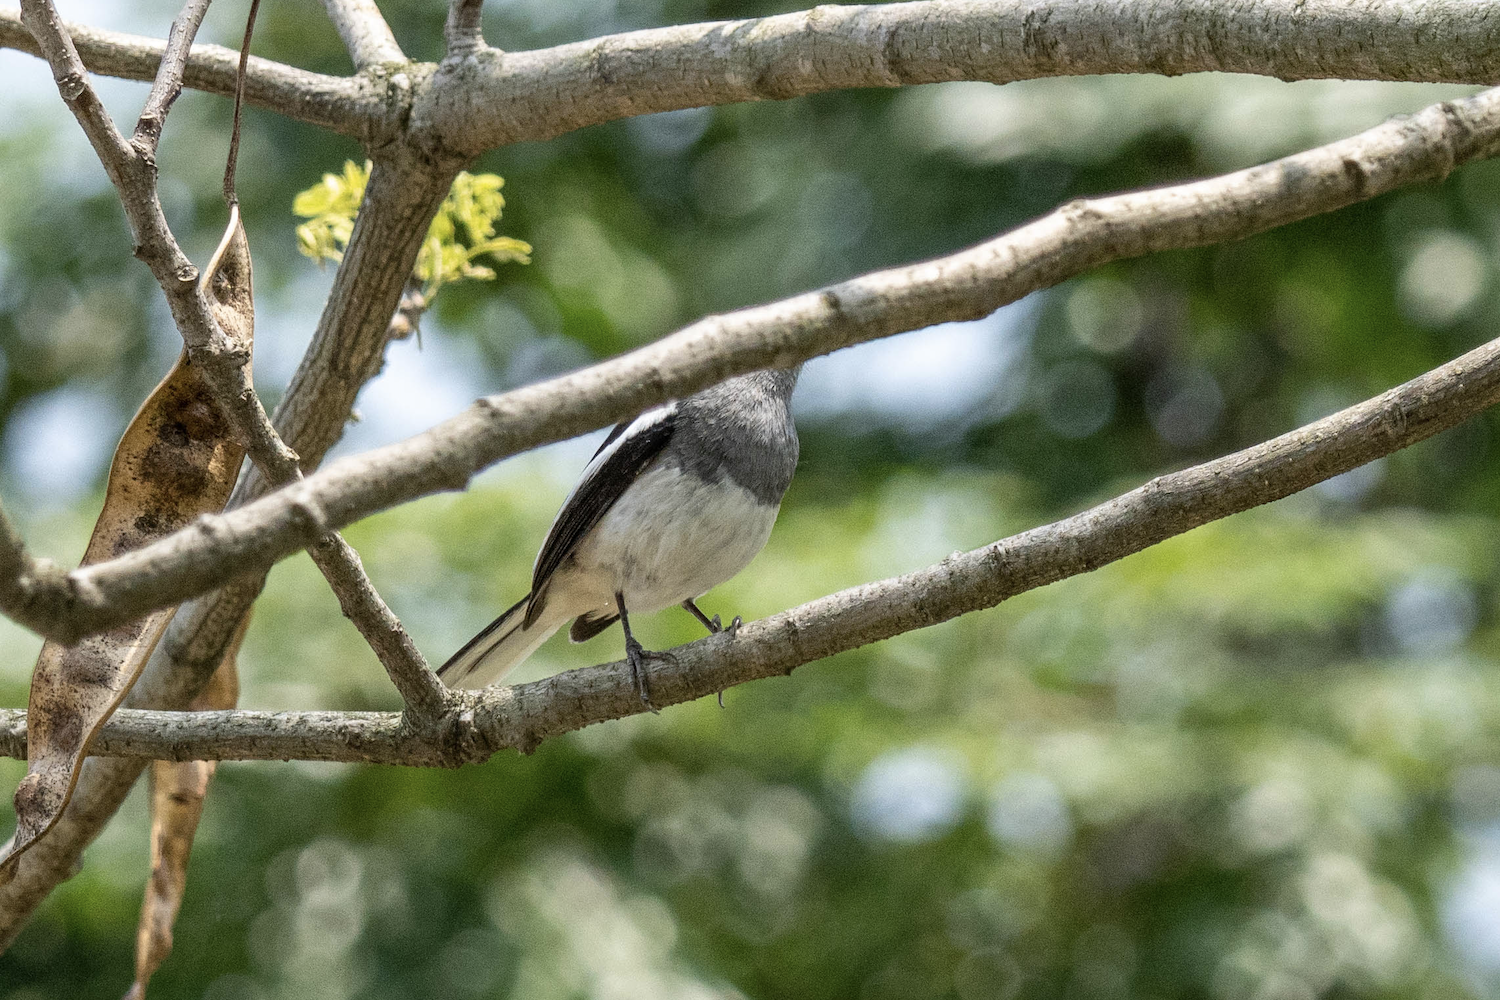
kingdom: Animalia
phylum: Chordata
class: Aves
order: Passeriformes
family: Muscicapidae
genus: Copsychus
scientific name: Copsychus saularis
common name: Oriental magpie-robin
